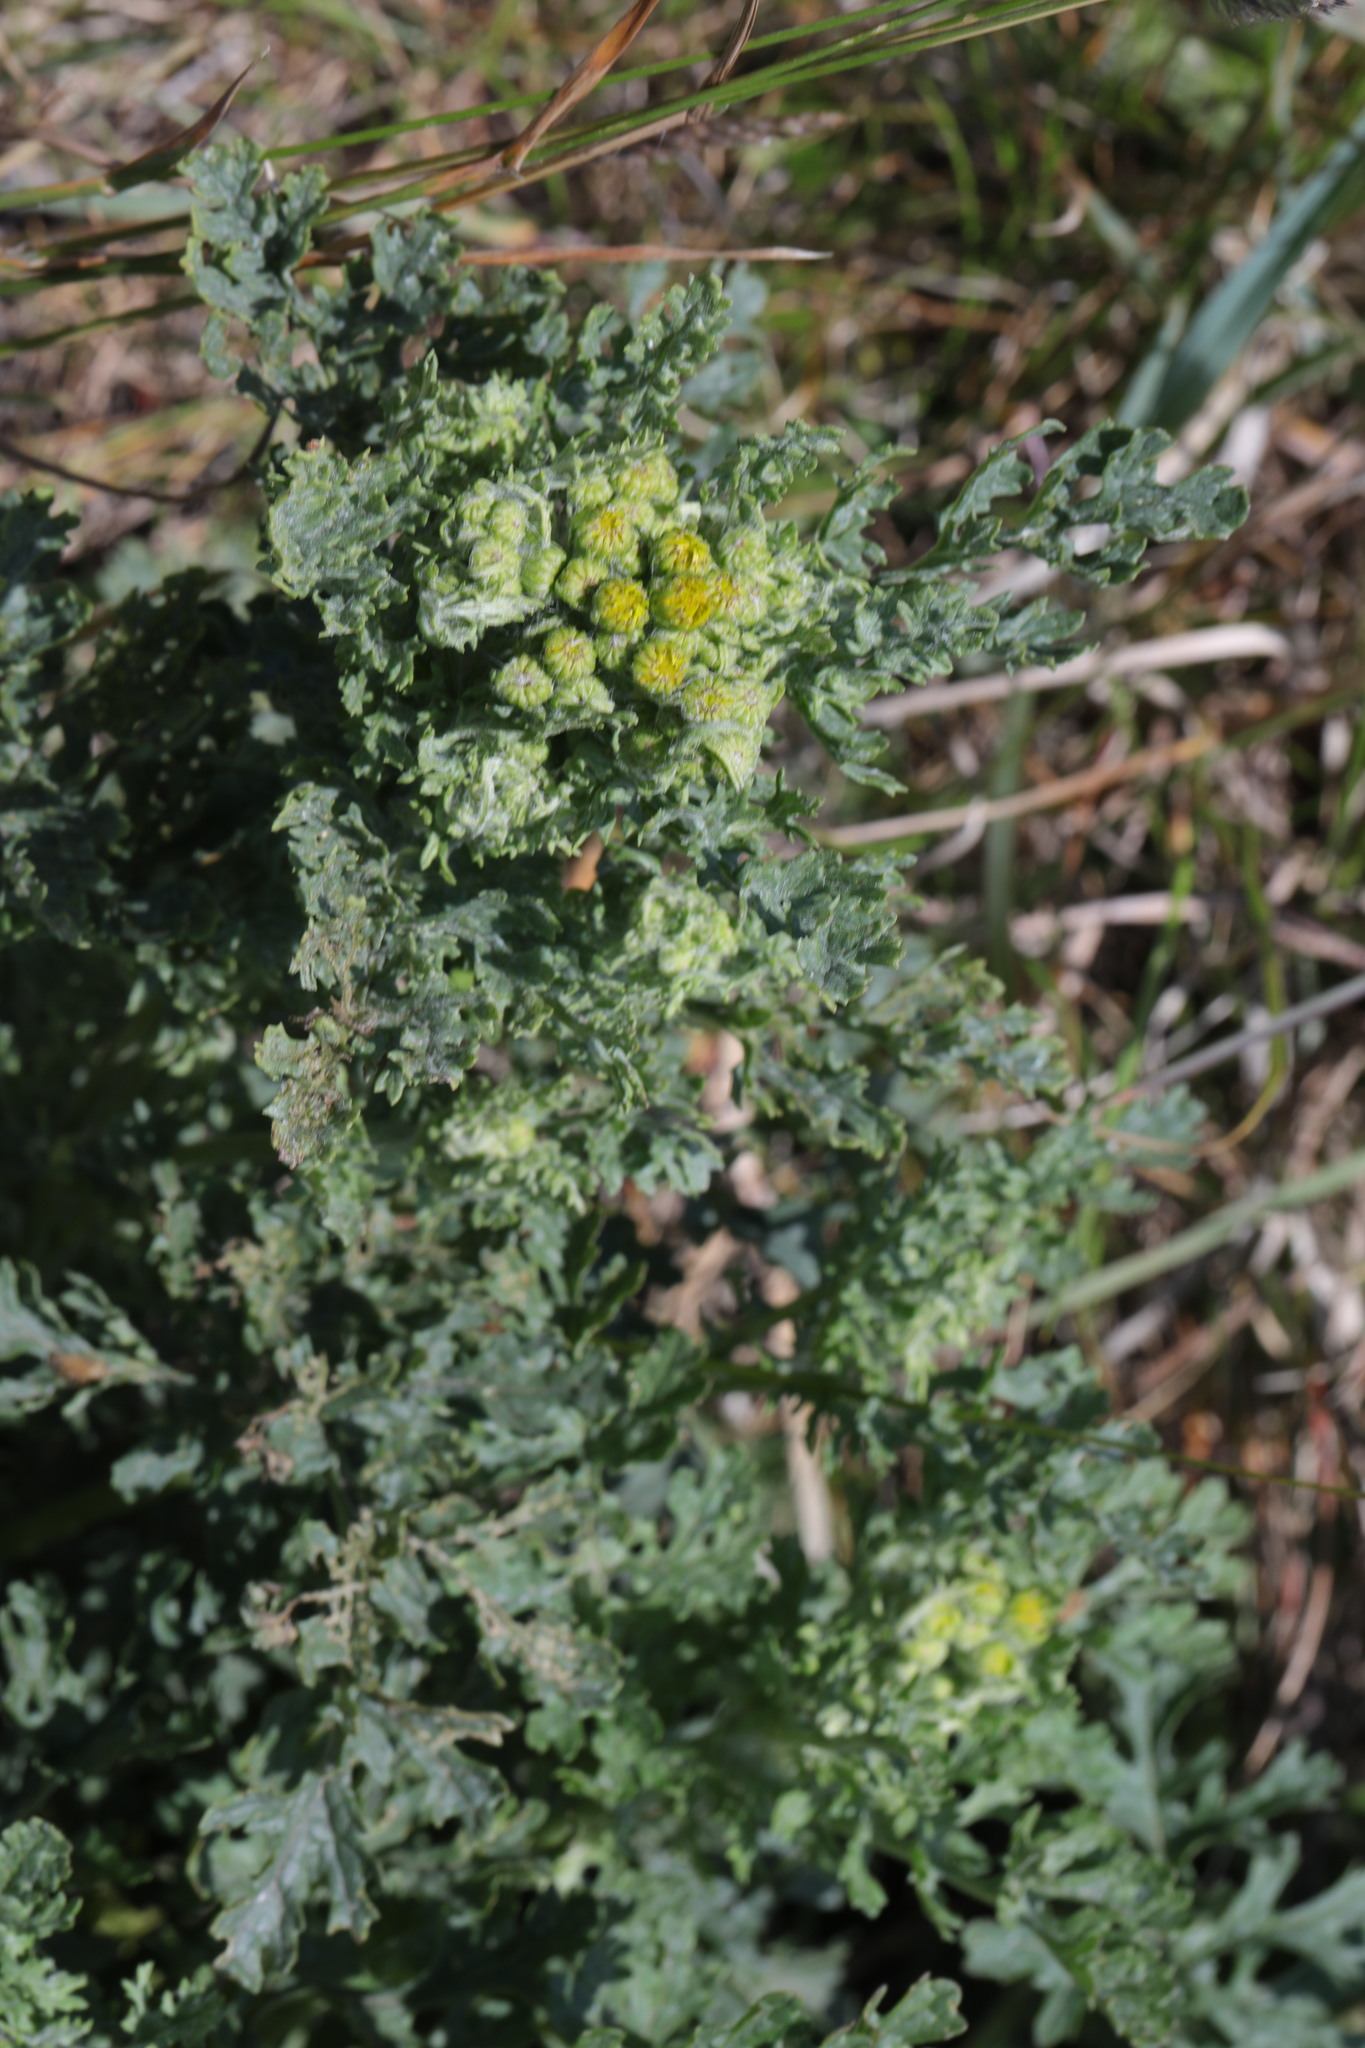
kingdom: Plantae
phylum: Tracheophyta
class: Magnoliopsida
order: Asterales
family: Asteraceae
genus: Jacobaea
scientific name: Jacobaea vulgaris
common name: Stinking willie
